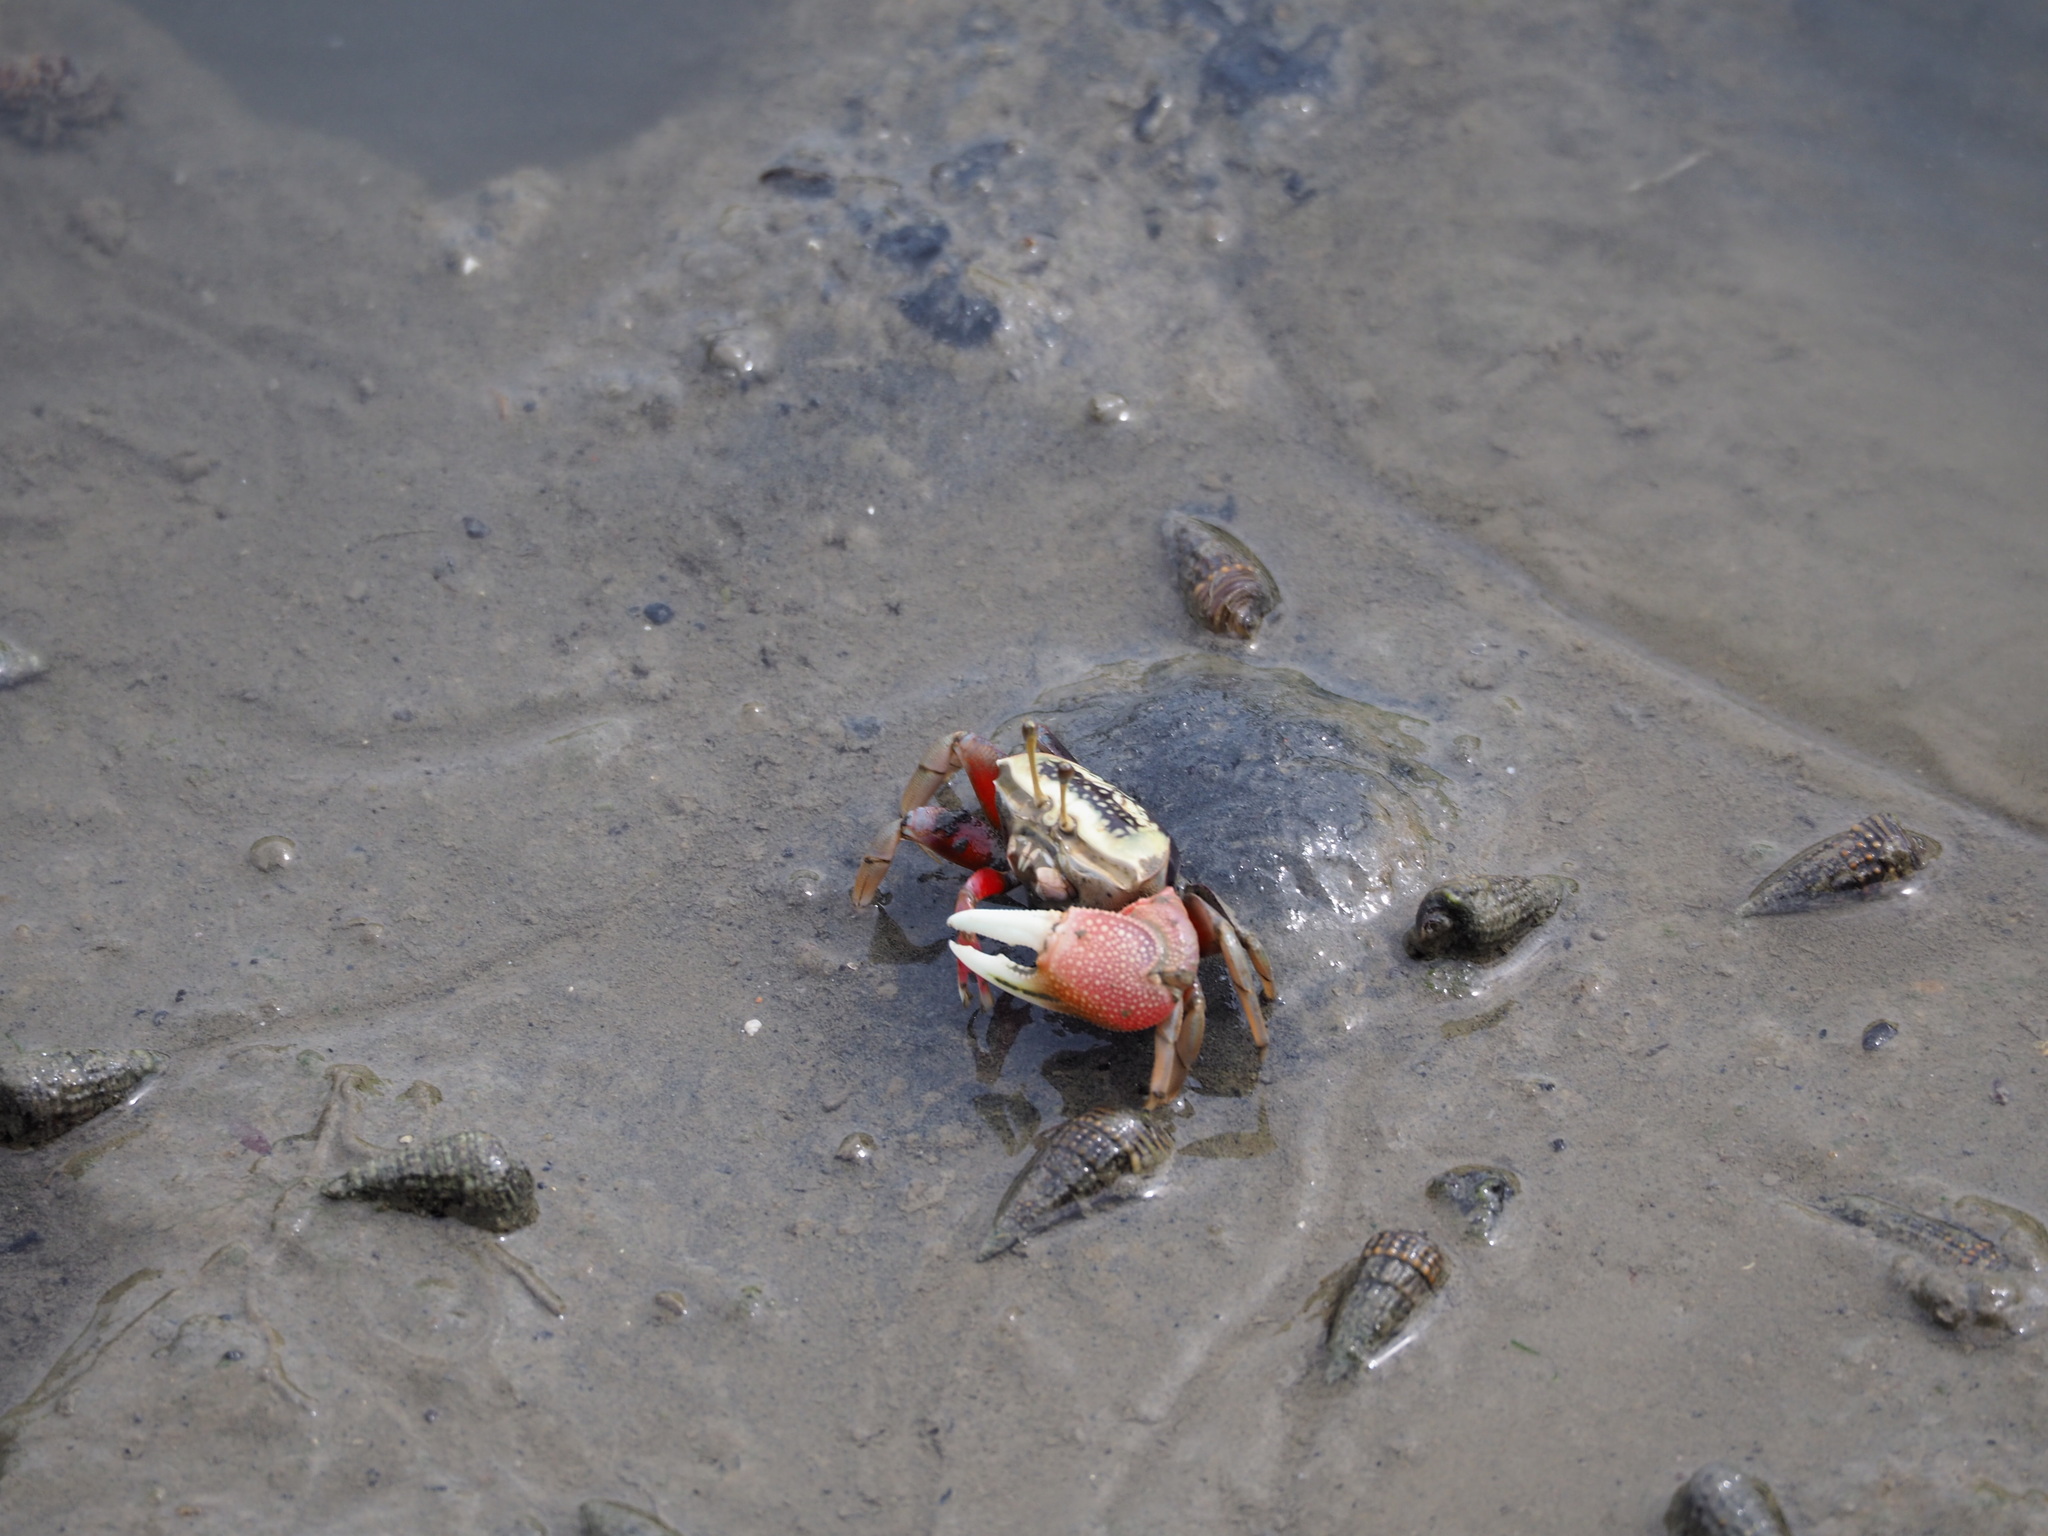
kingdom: Animalia
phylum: Arthropoda
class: Malacostraca
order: Decapoda
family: Ocypodidae
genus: Tubuca
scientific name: Tubuca arcuata
